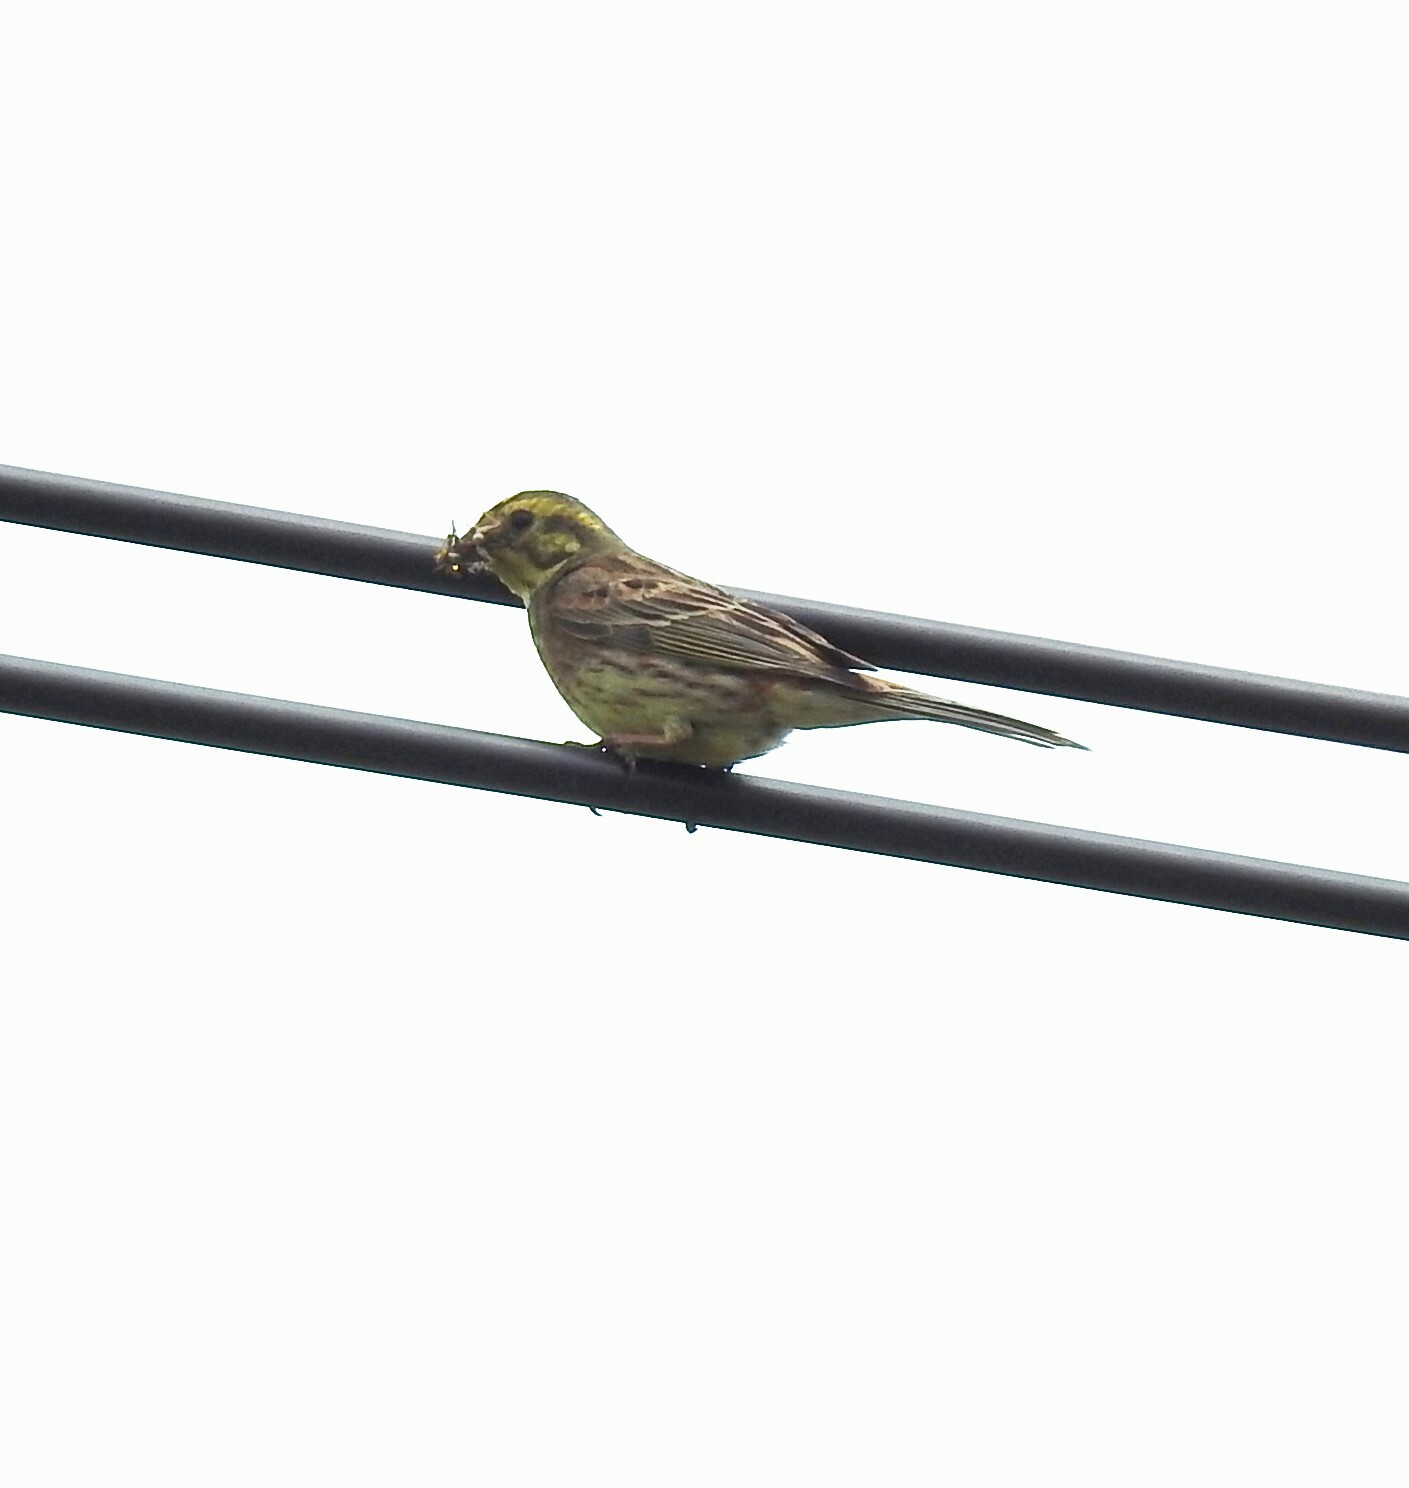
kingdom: Animalia
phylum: Chordata
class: Aves
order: Passeriformes
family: Emberizidae
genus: Emberiza
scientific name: Emberiza citrinella
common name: Yellowhammer
